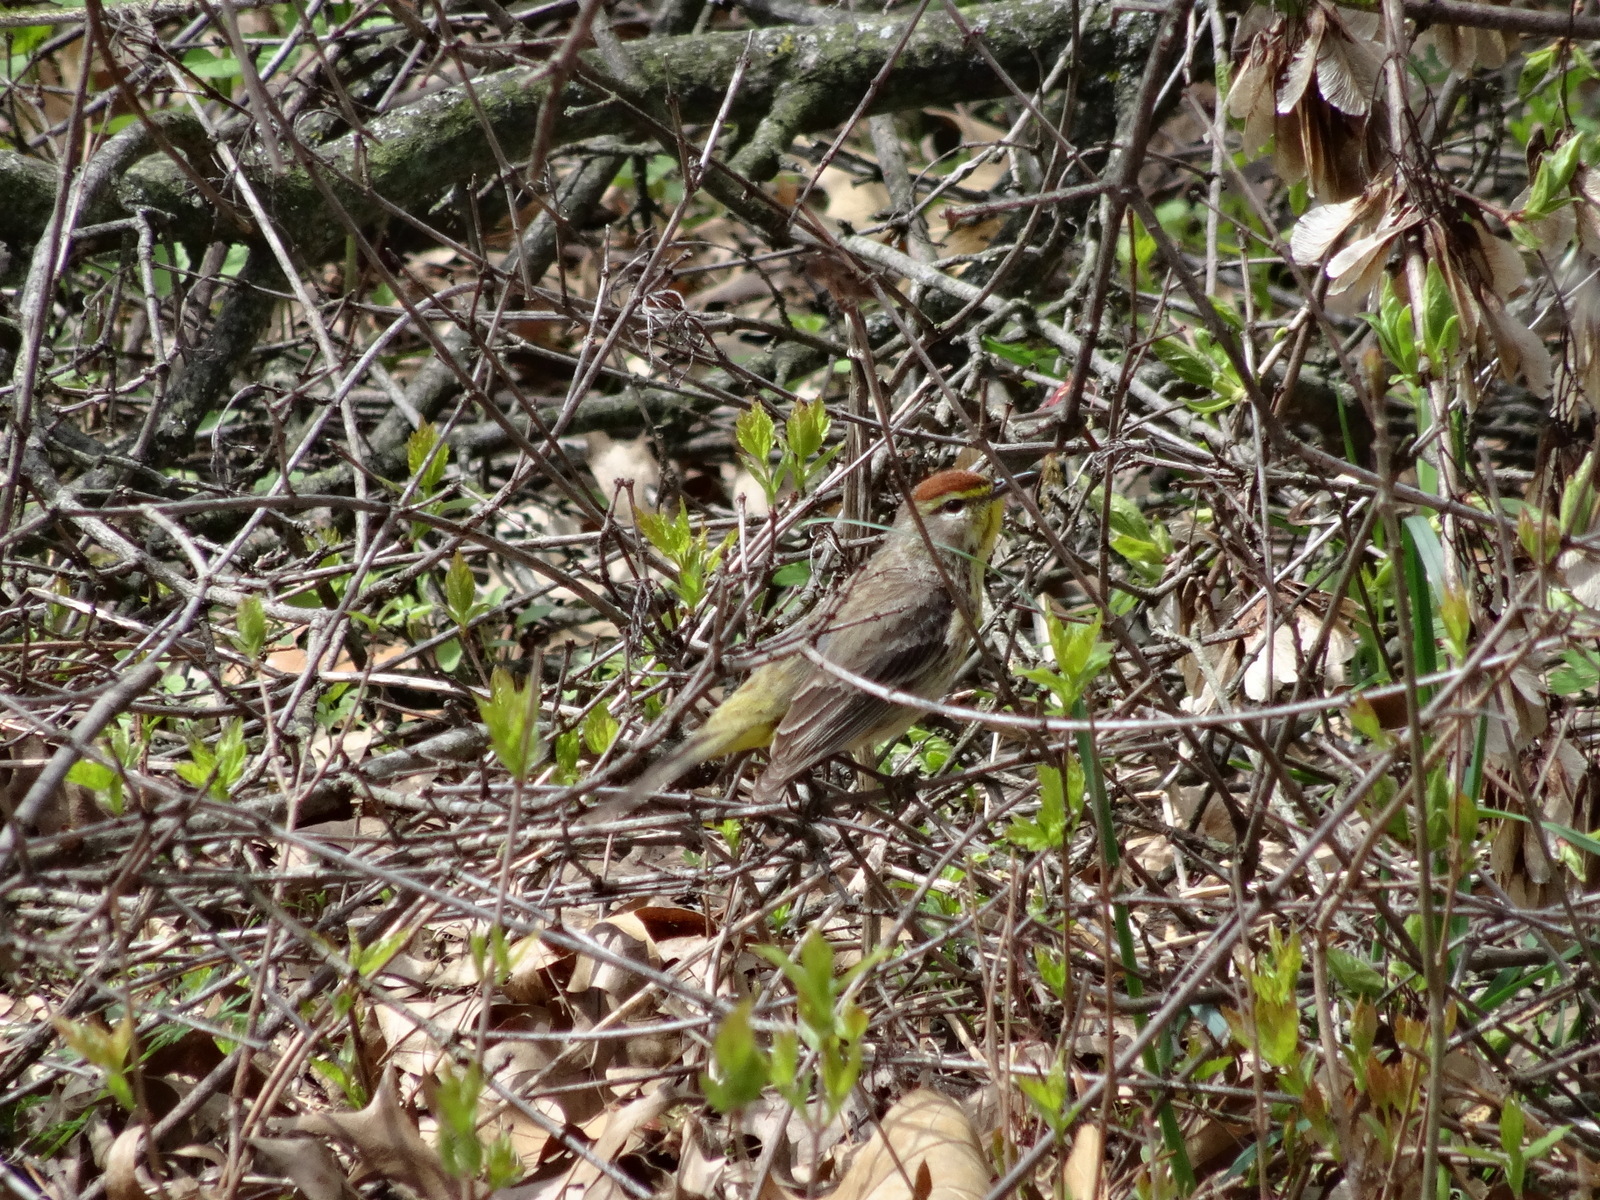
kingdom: Animalia
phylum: Chordata
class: Aves
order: Passeriformes
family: Parulidae
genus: Setophaga
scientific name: Setophaga palmarum
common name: Palm warbler
